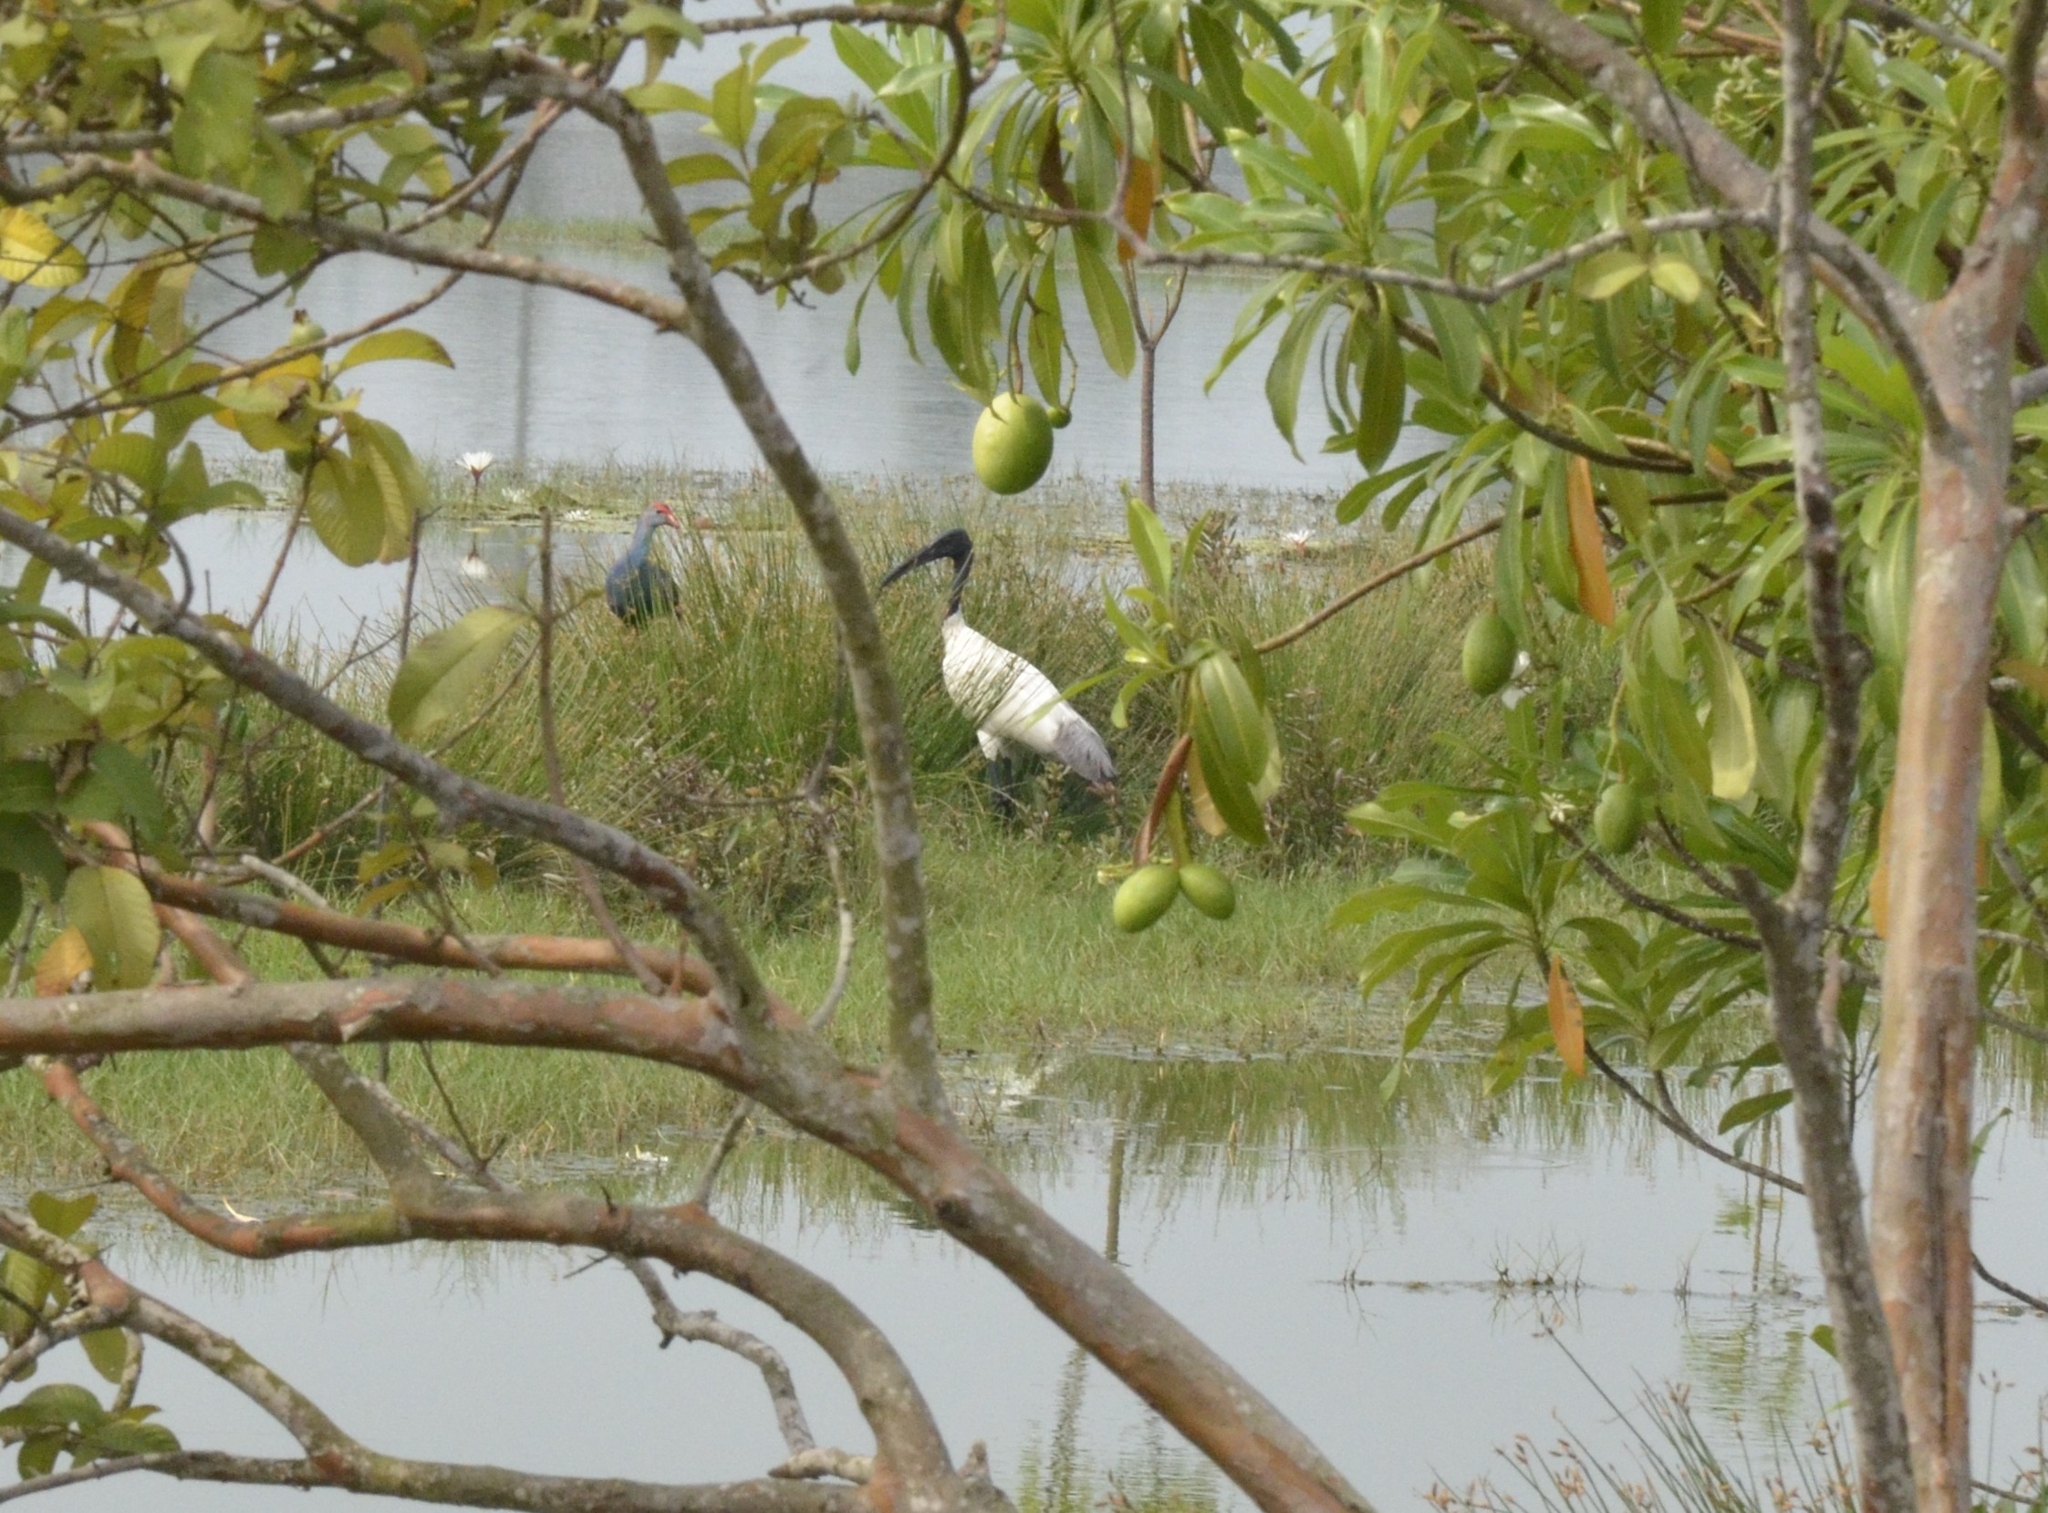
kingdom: Animalia
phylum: Chordata
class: Aves
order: Pelecaniformes
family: Threskiornithidae
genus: Threskiornis
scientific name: Threskiornis melanocephalus
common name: Black-headed ibis
